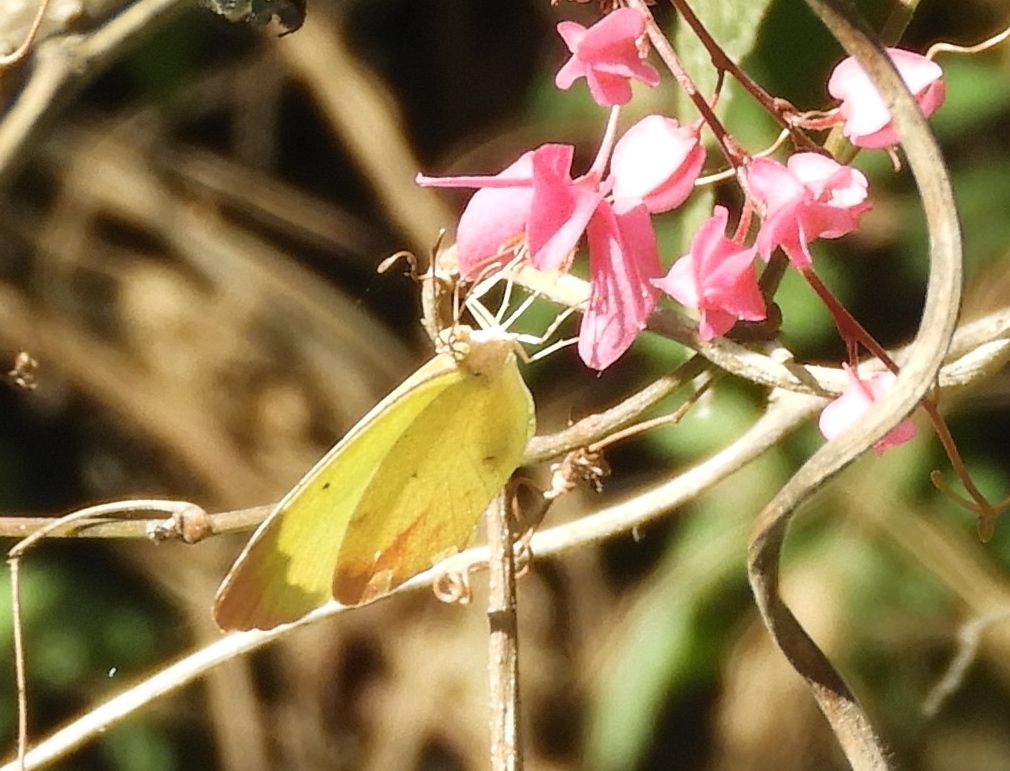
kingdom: Animalia
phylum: Arthropoda
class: Insecta
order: Lepidoptera
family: Pieridae
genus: Abaeis
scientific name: Abaeis boisduvaliana
